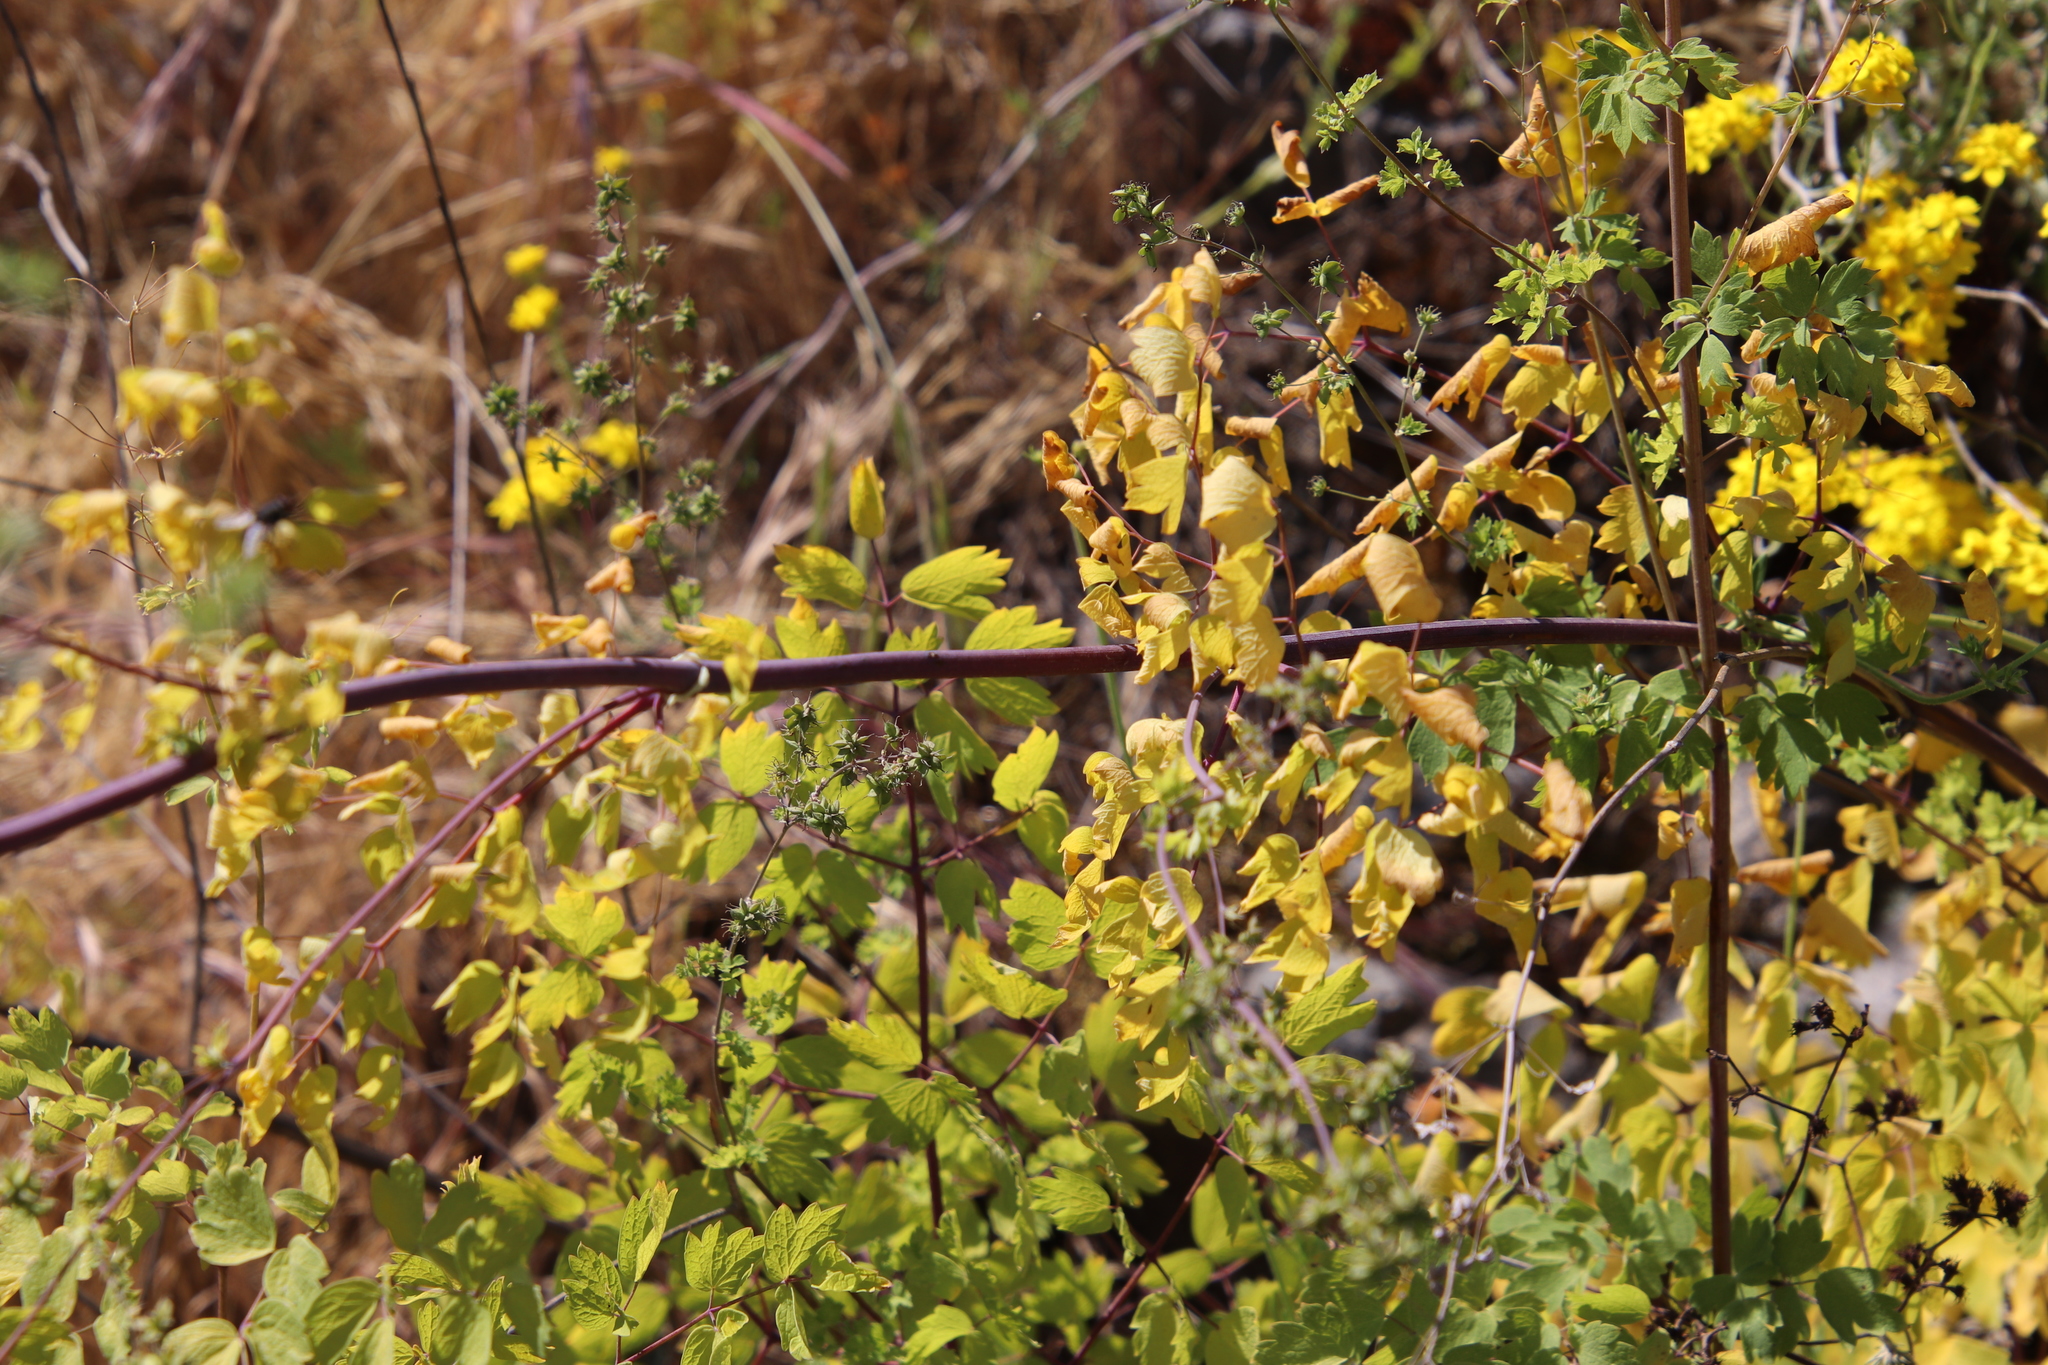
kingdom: Plantae
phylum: Tracheophyta
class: Magnoliopsida
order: Ranunculales
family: Ranunculaceae
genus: Thalictrum
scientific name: Thalictrum fendleri
